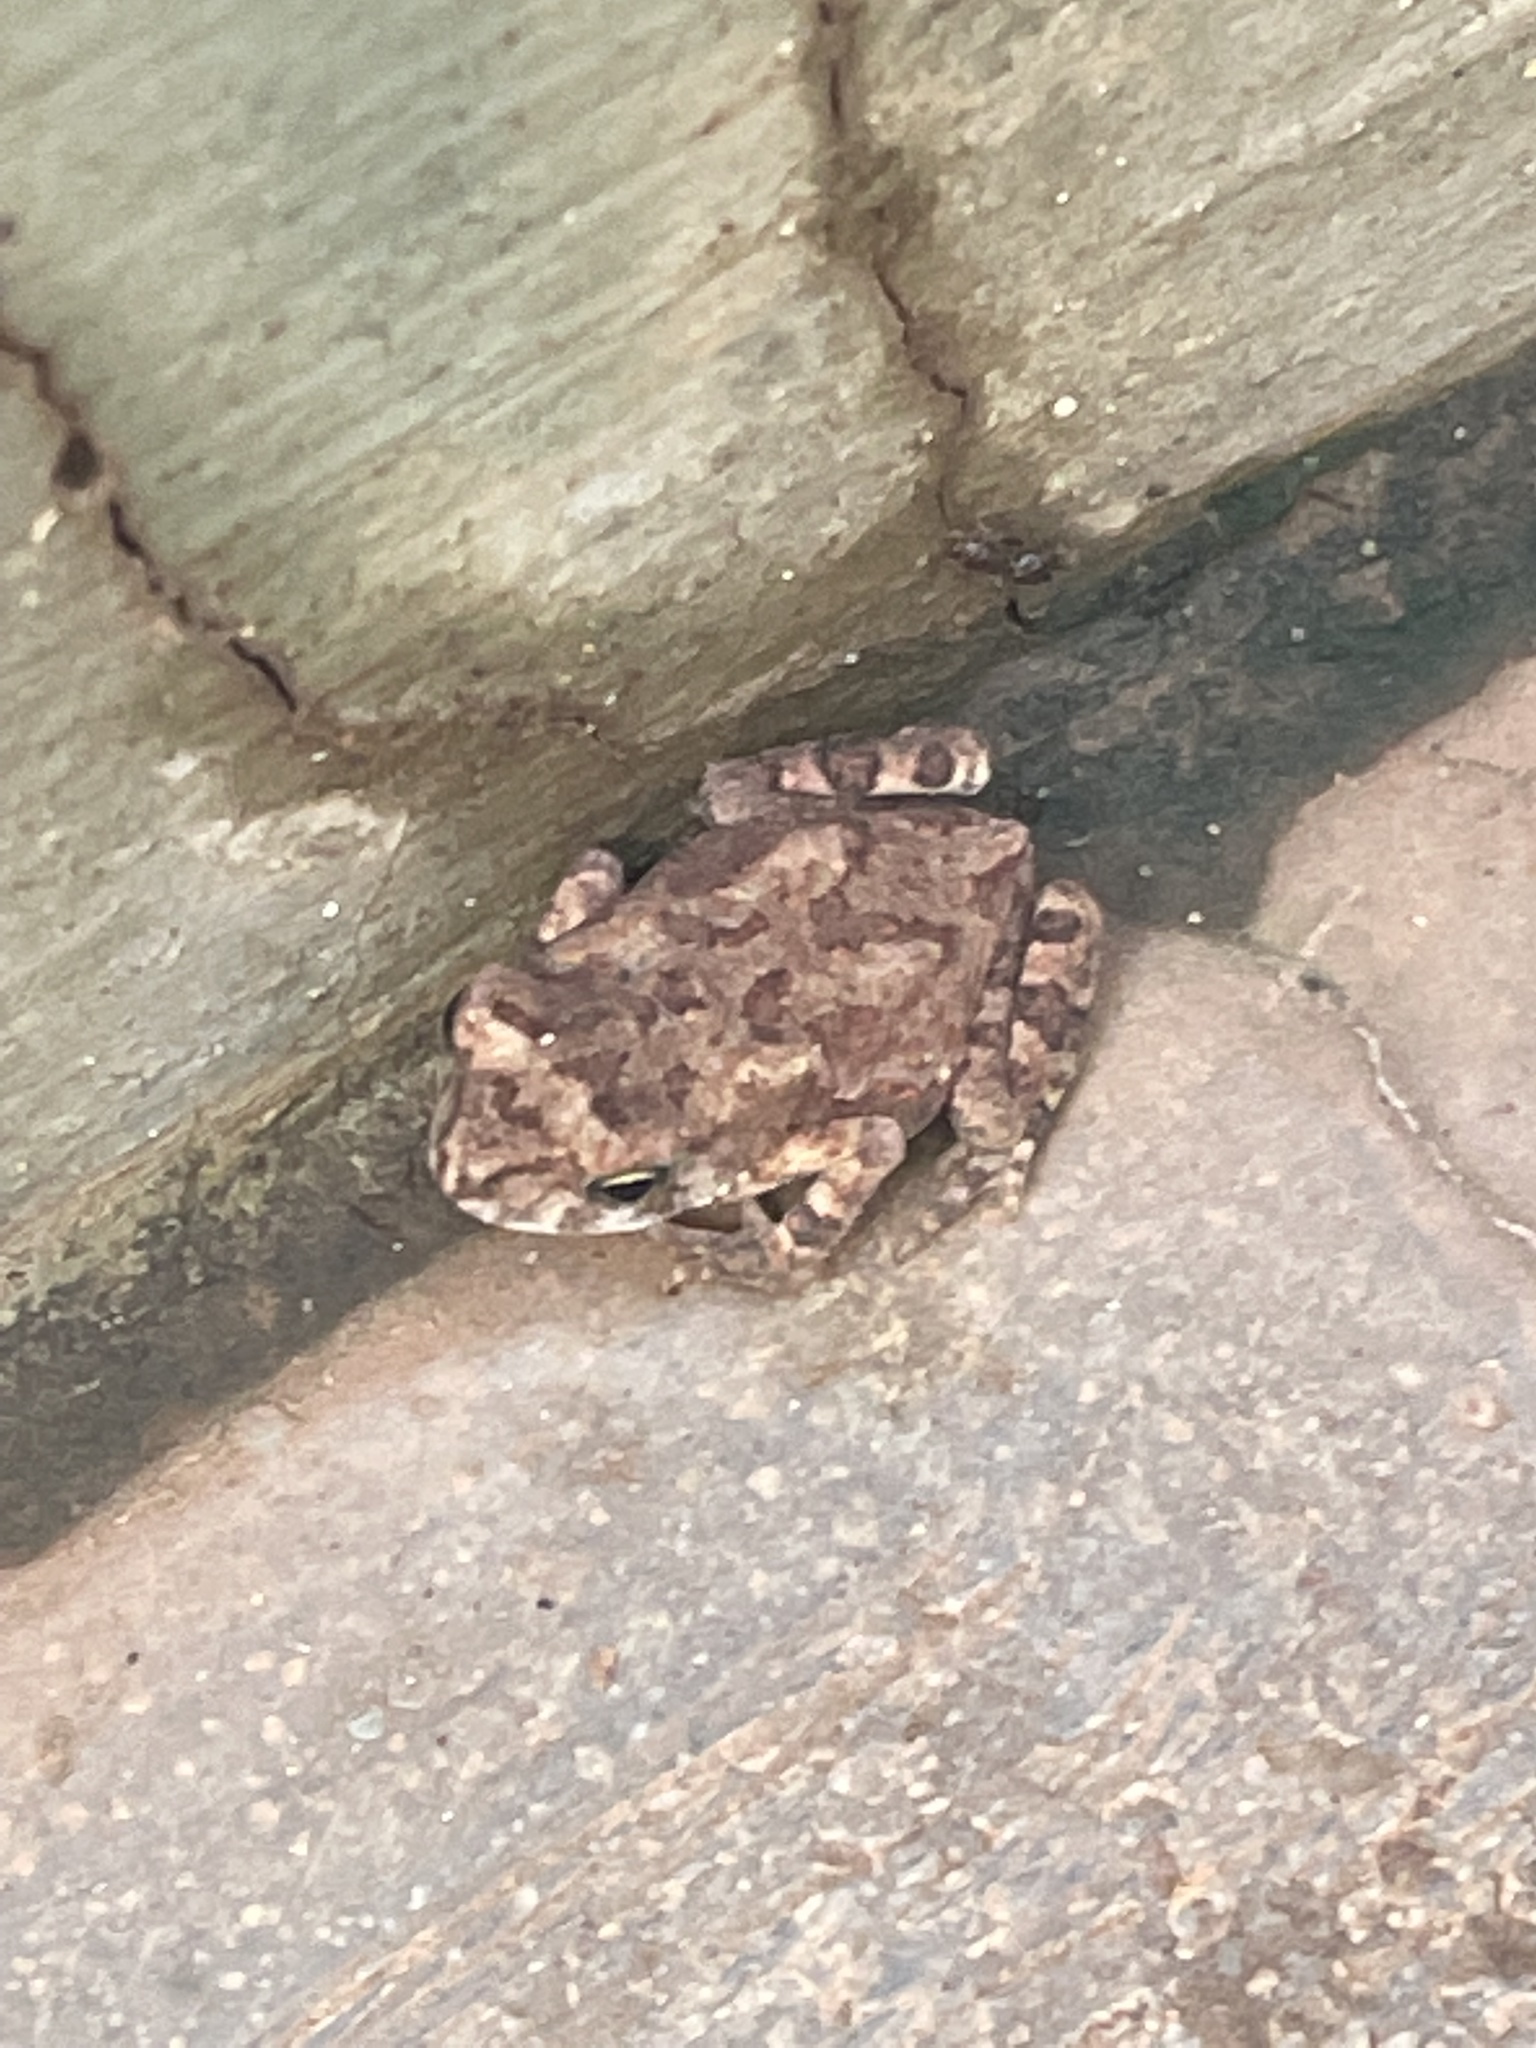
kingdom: Animalia
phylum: Chordata
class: Amphibia
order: Anura
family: Bufonidae
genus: Duttaphrynus
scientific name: Duttaphrynus melanostictus
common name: Common sunda toad
